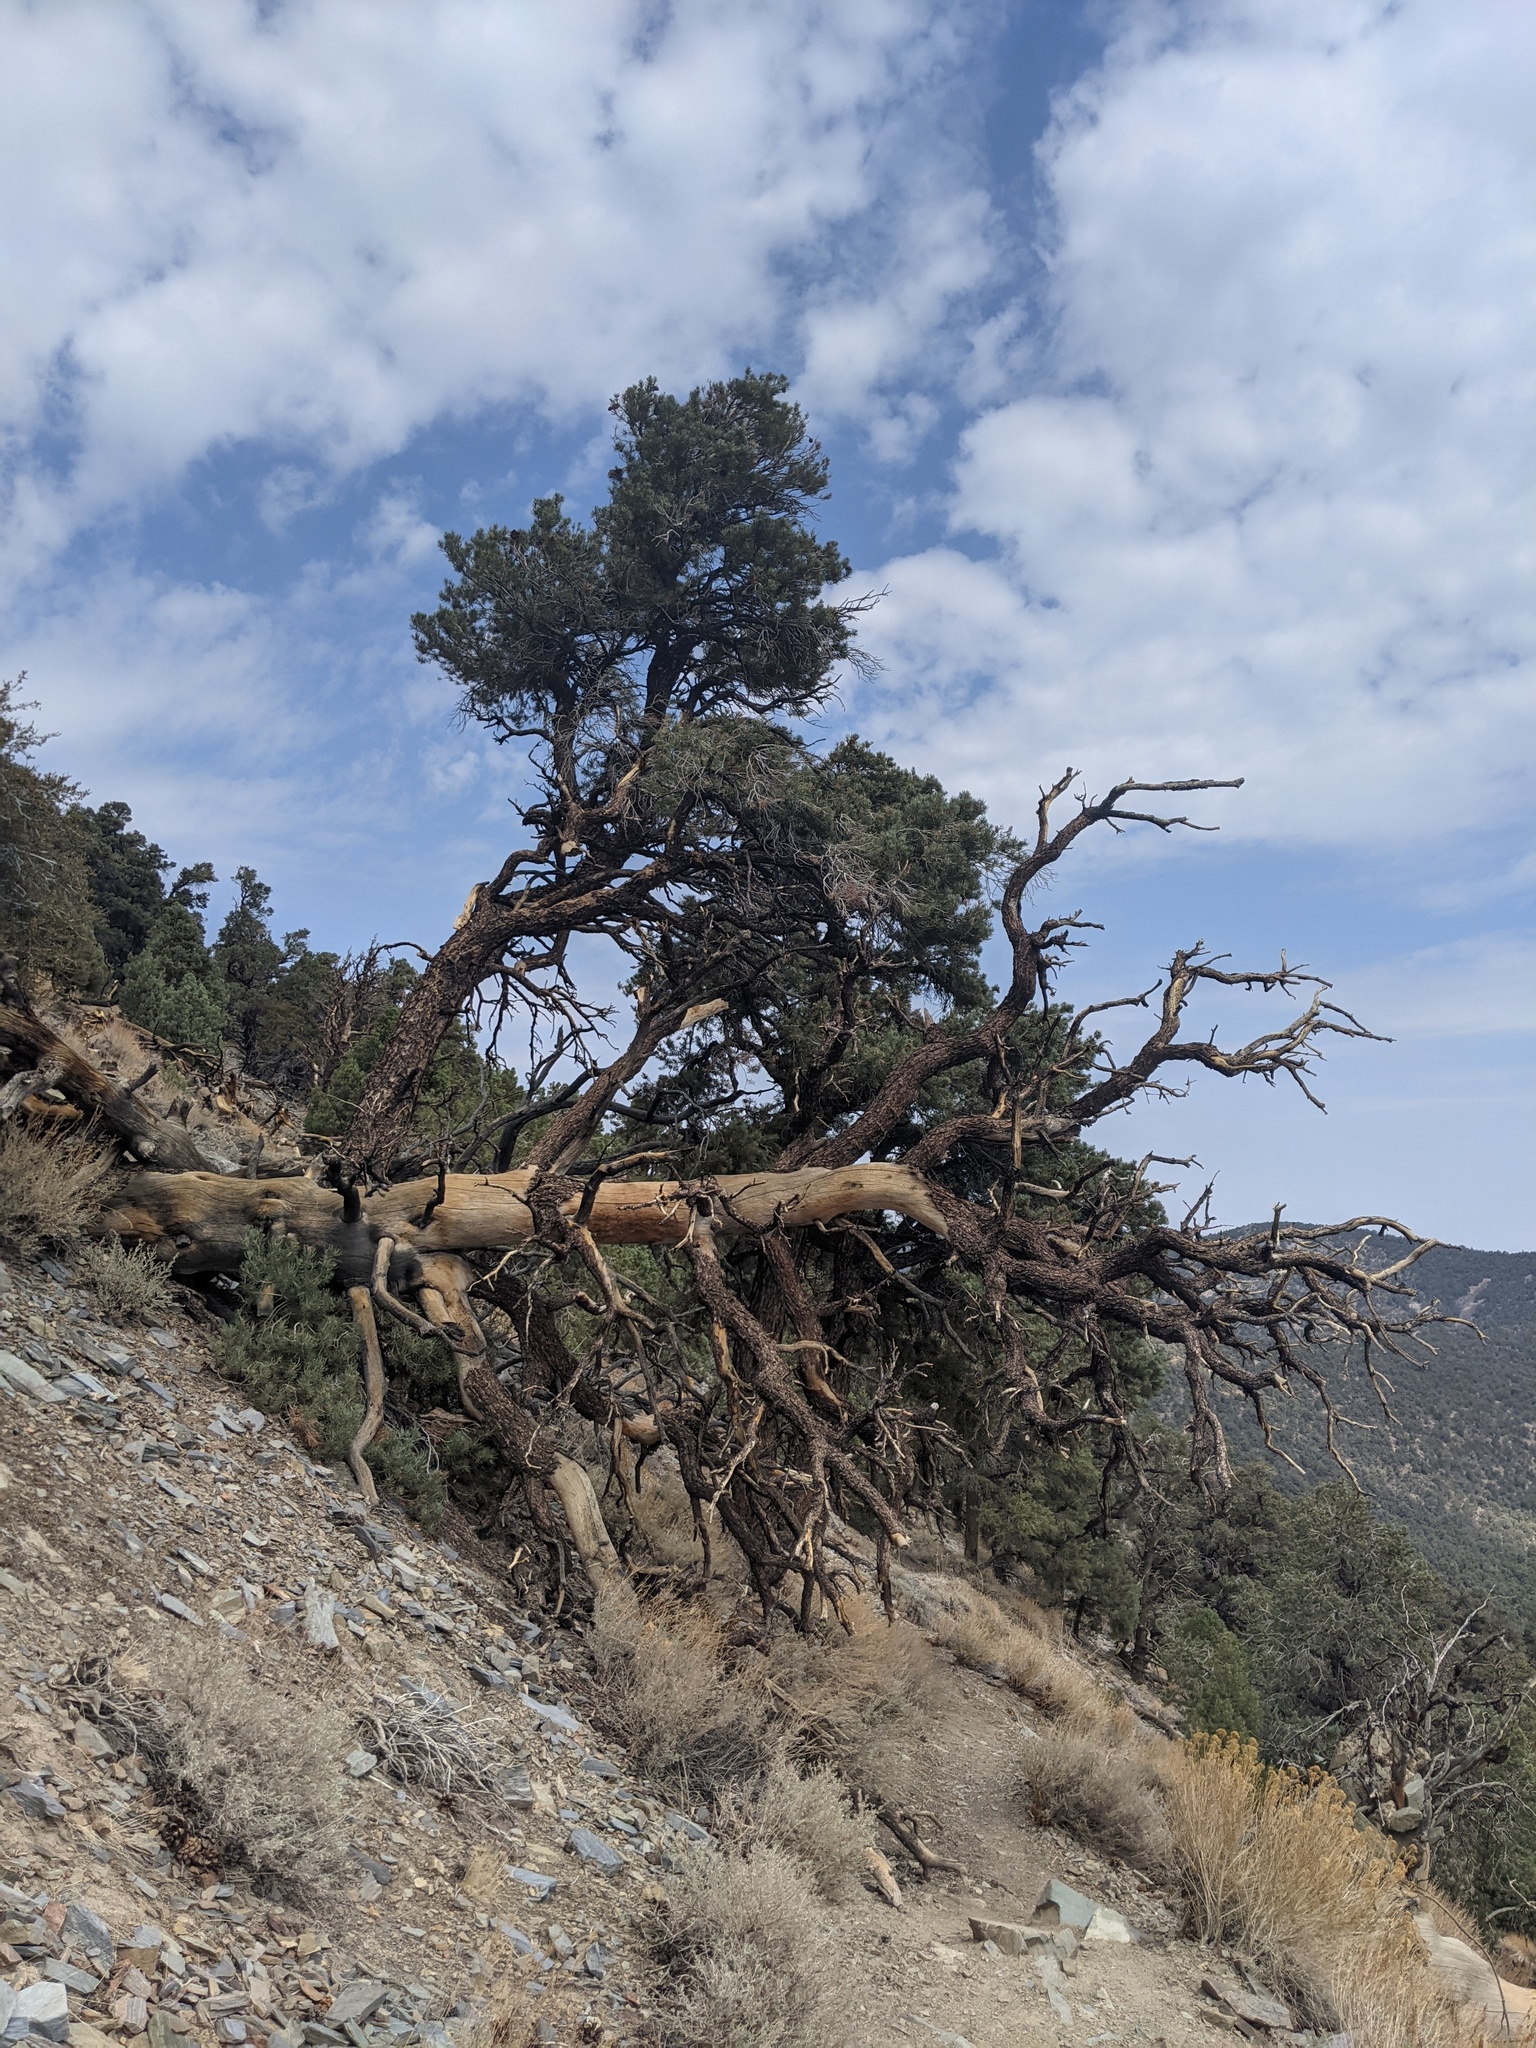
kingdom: Plantae
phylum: Tracheophyta
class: Pinopsida
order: Pinales
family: Pinaceae
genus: Pinus
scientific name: Pinus monophylla
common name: One-leaved nut pine
